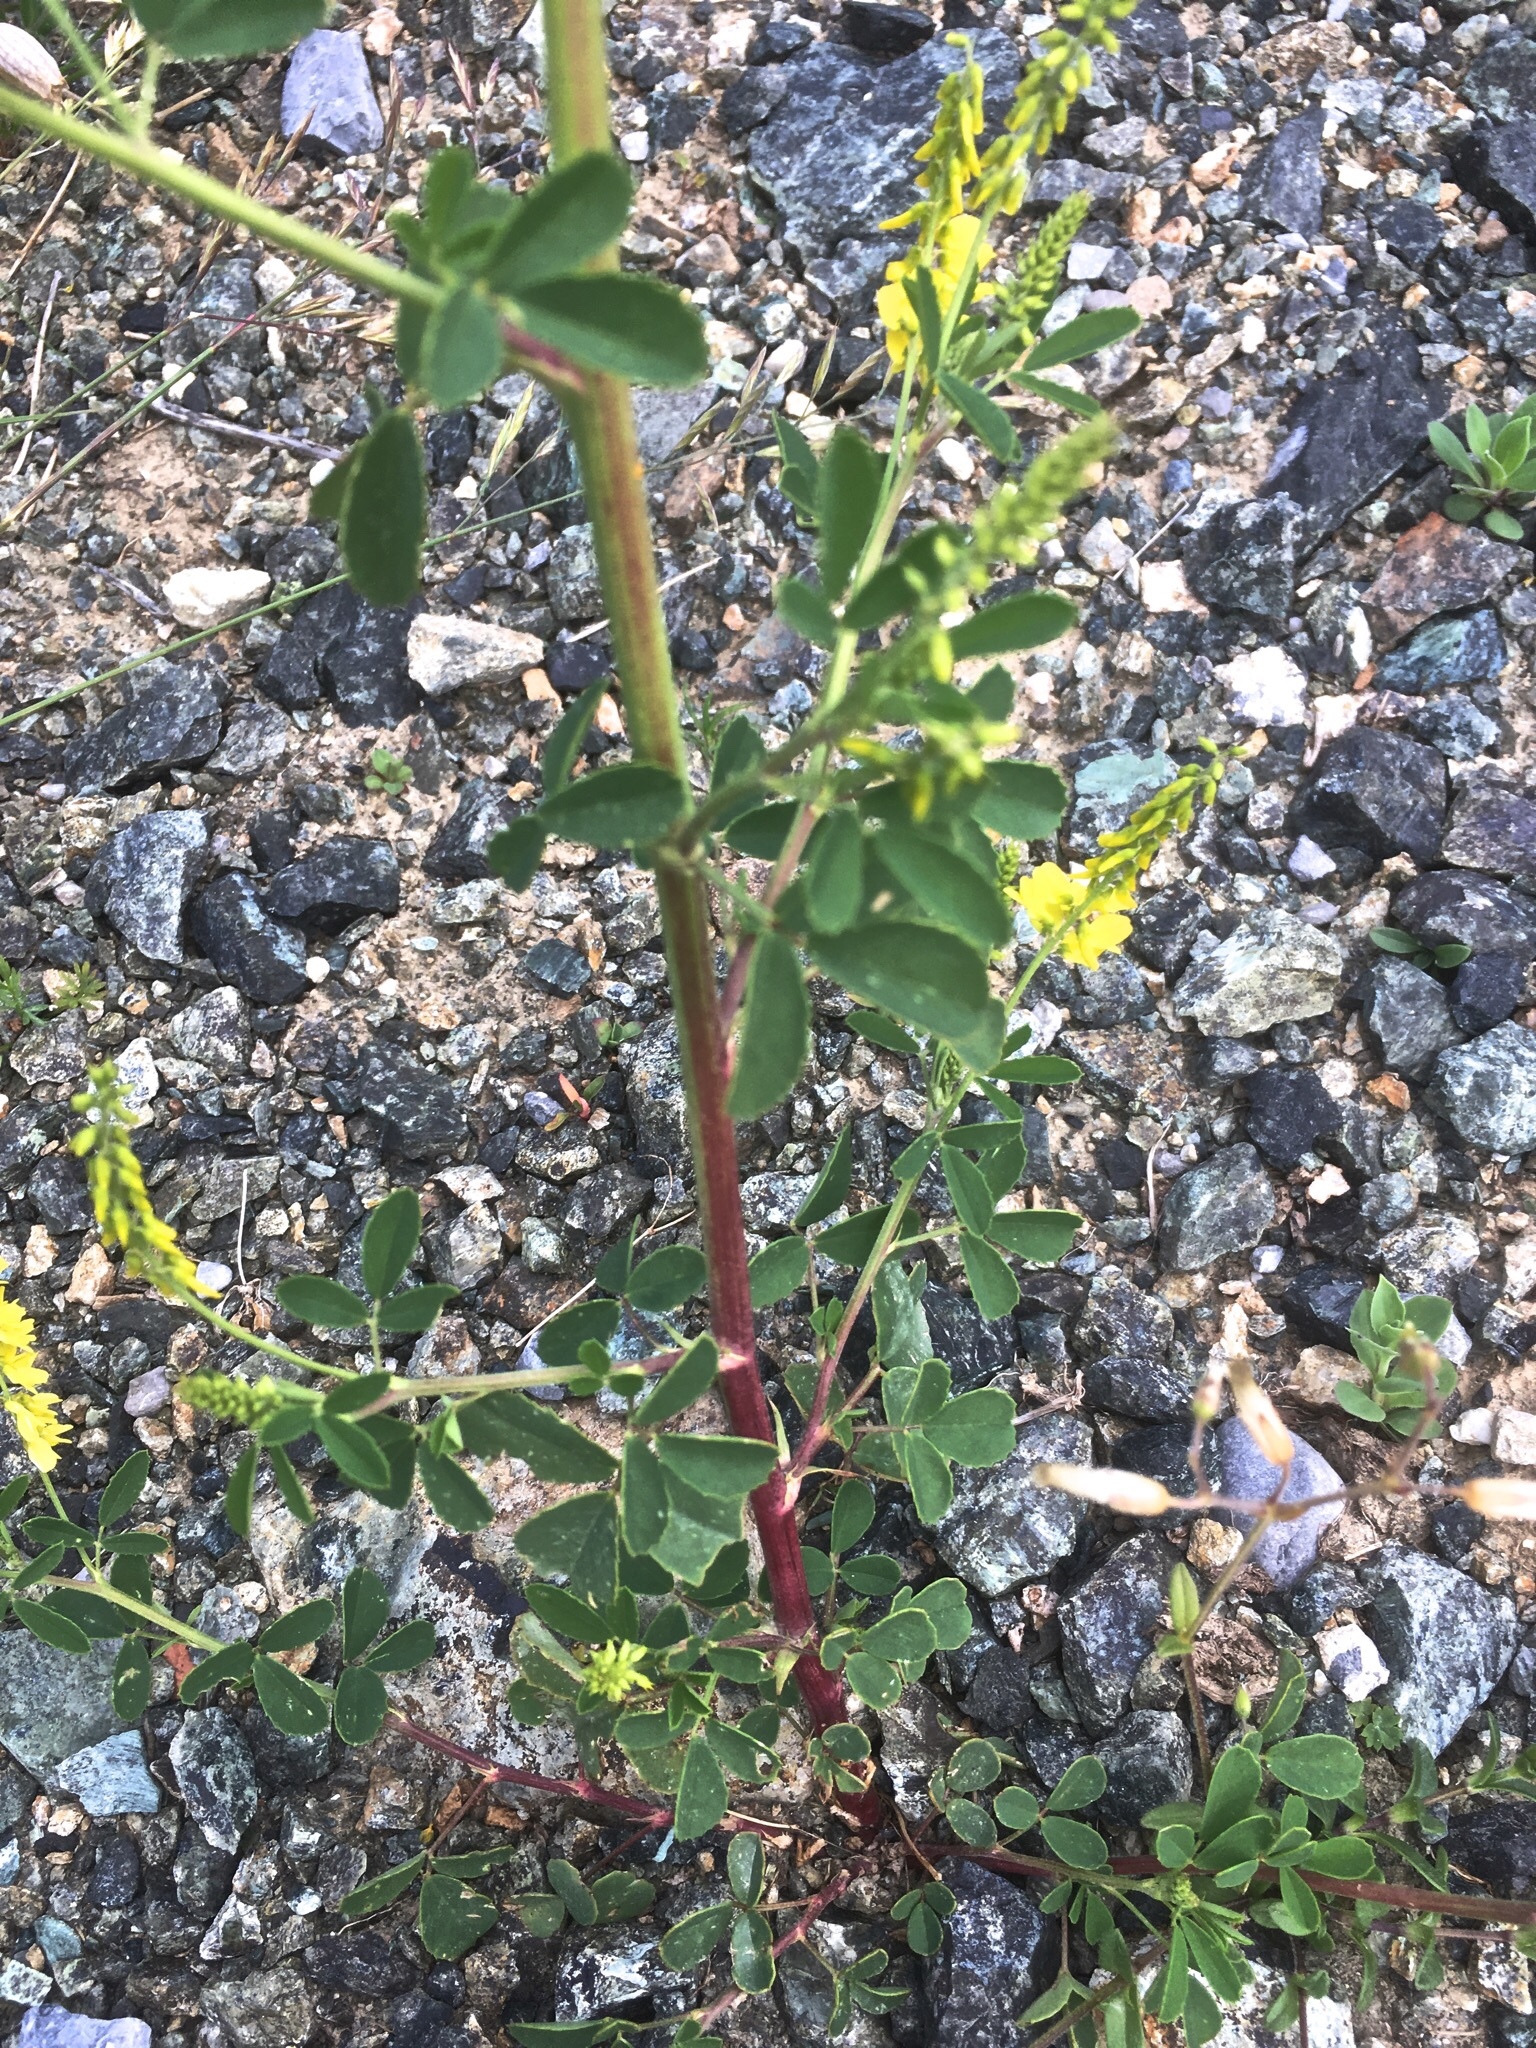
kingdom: Plantae
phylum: Tracheophyta
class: Magnoliopsida
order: Fabales
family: Fabaceae
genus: Melilotus
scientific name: Melilotus officinalis
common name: Sweetclover
